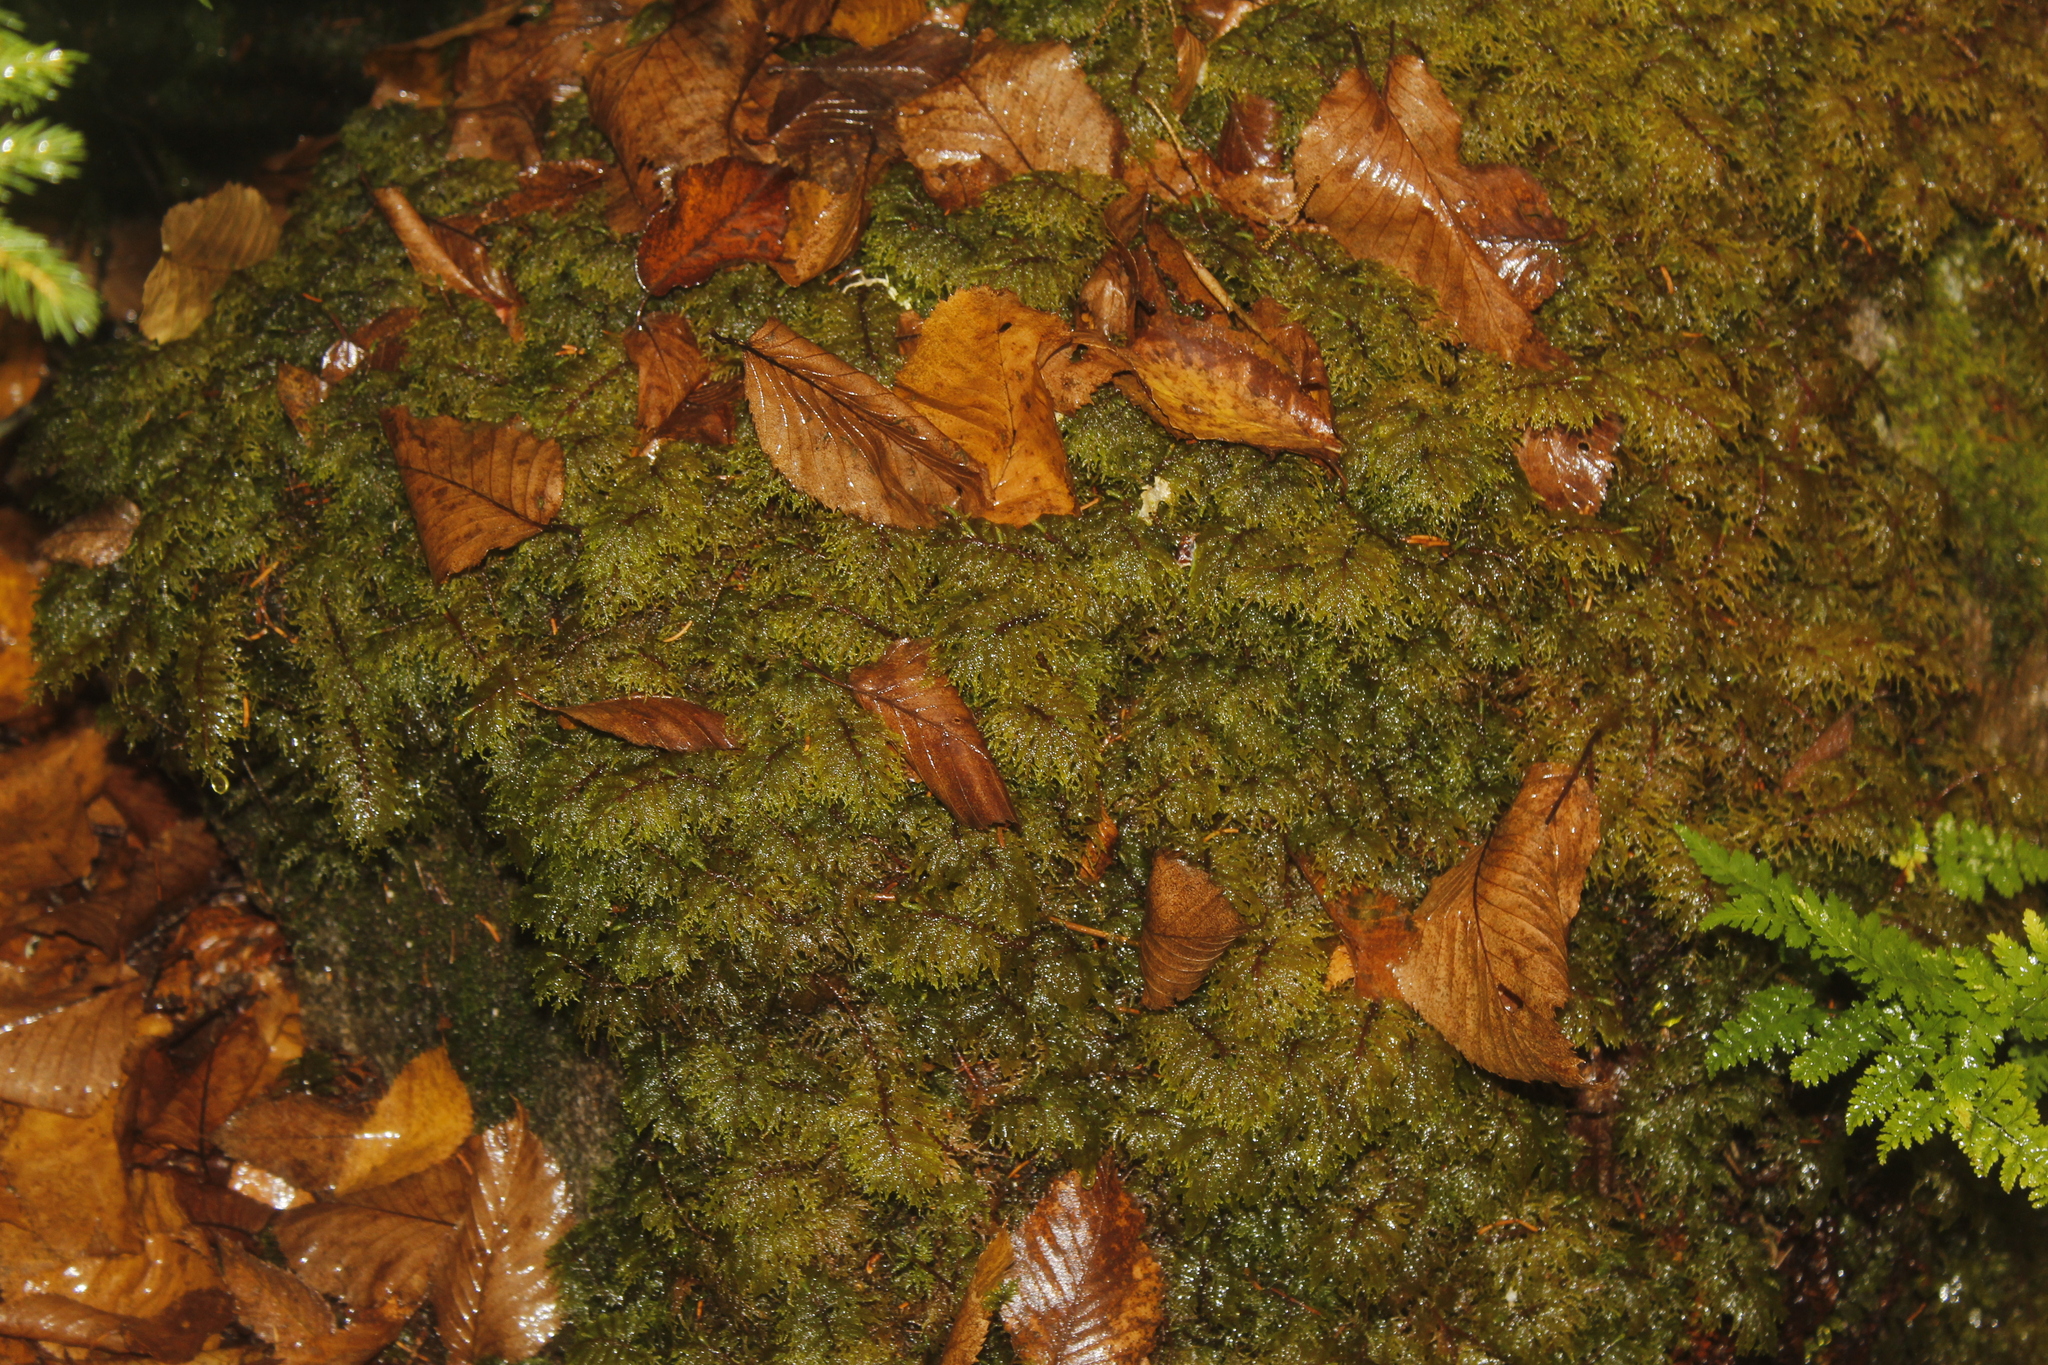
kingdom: Plantae
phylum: Bryophyta
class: Bryopsida
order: Hypnales
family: Hylocomiaceae
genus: Hylocomium
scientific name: Hylocomium splendens
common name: Stairstep moss
